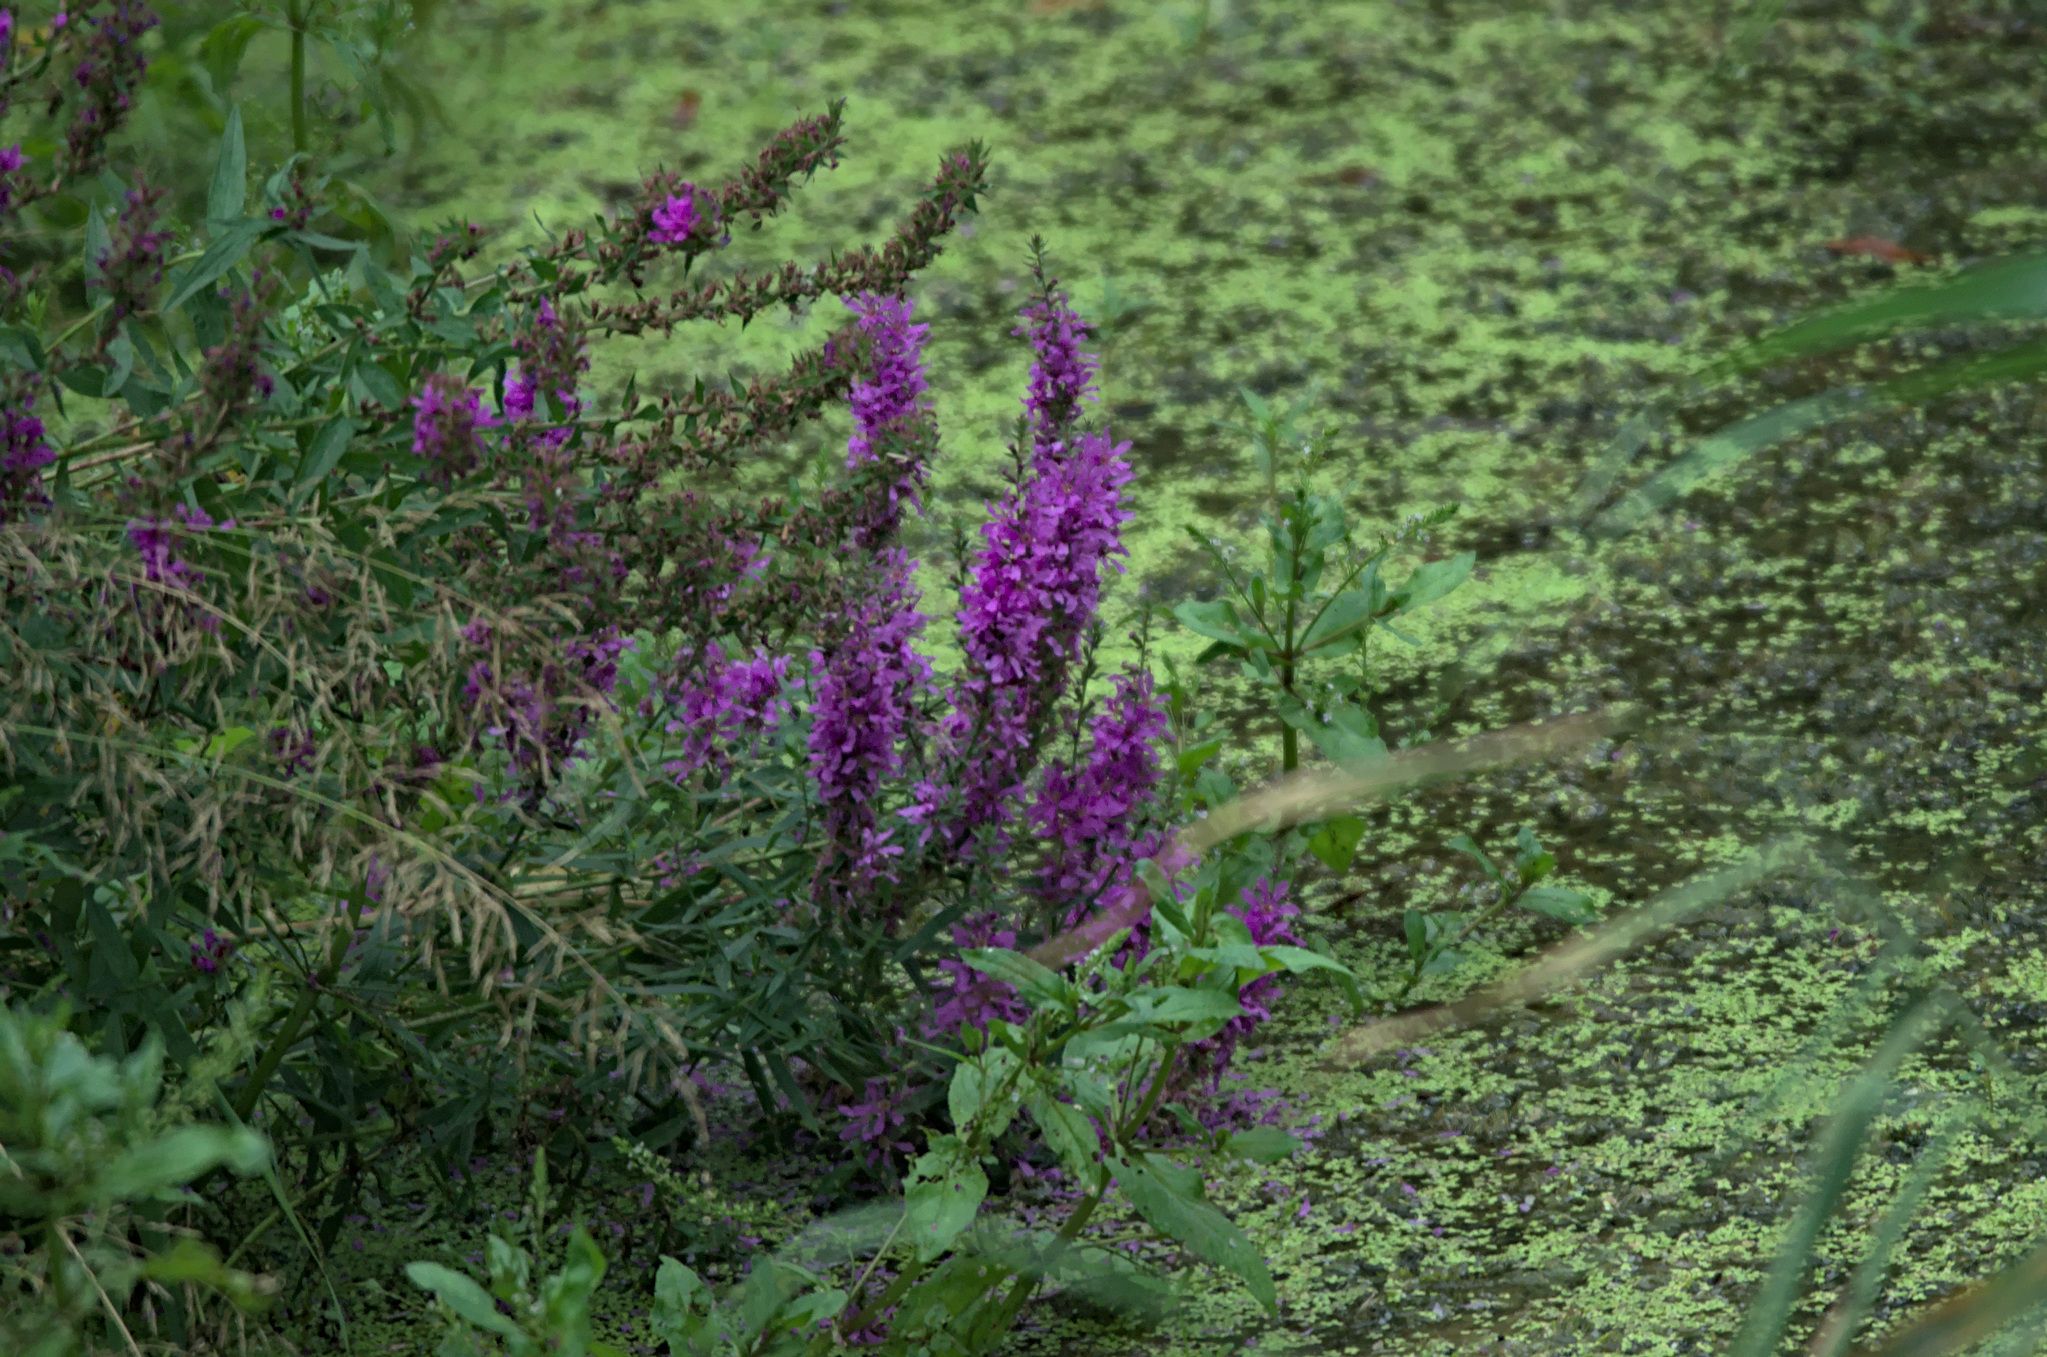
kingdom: Plantae
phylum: Tracheophyta
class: Magnoliopsida
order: Myrtales
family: Lythraceae
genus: Lythrum
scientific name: Lythrum salicaria
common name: Purple loosestrife
